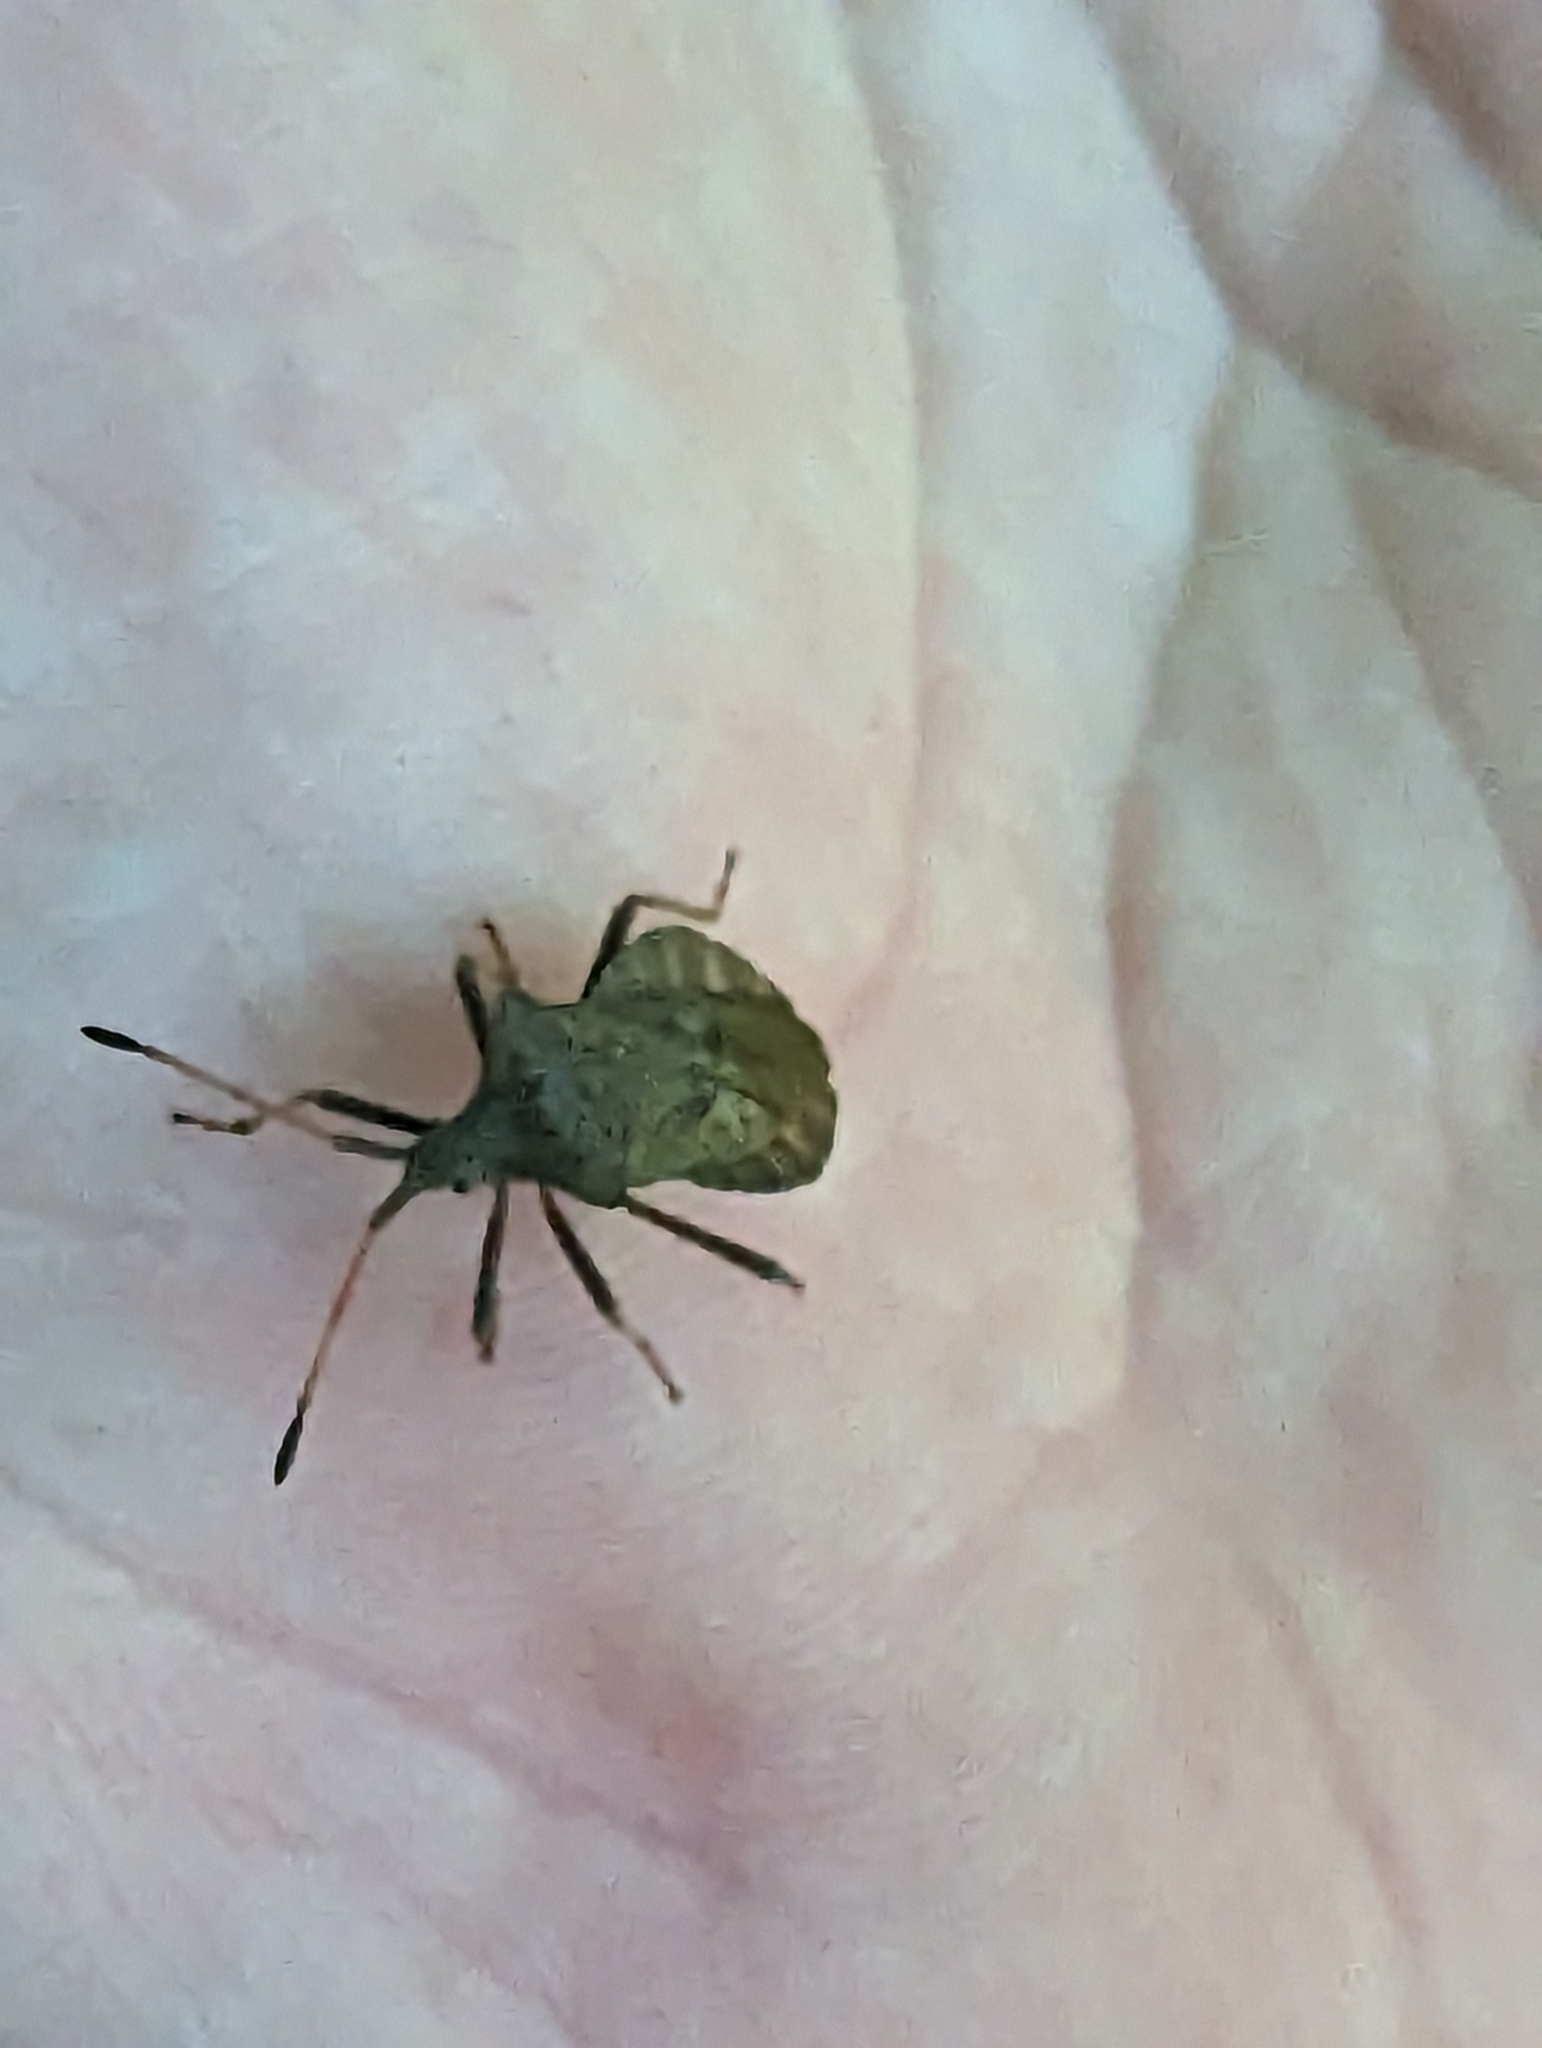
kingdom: Animalia
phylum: Arthropoda
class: Insecta
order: Hemiptera
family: Coreidae
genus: Coreus
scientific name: Coreus marginatus
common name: Dock bug
